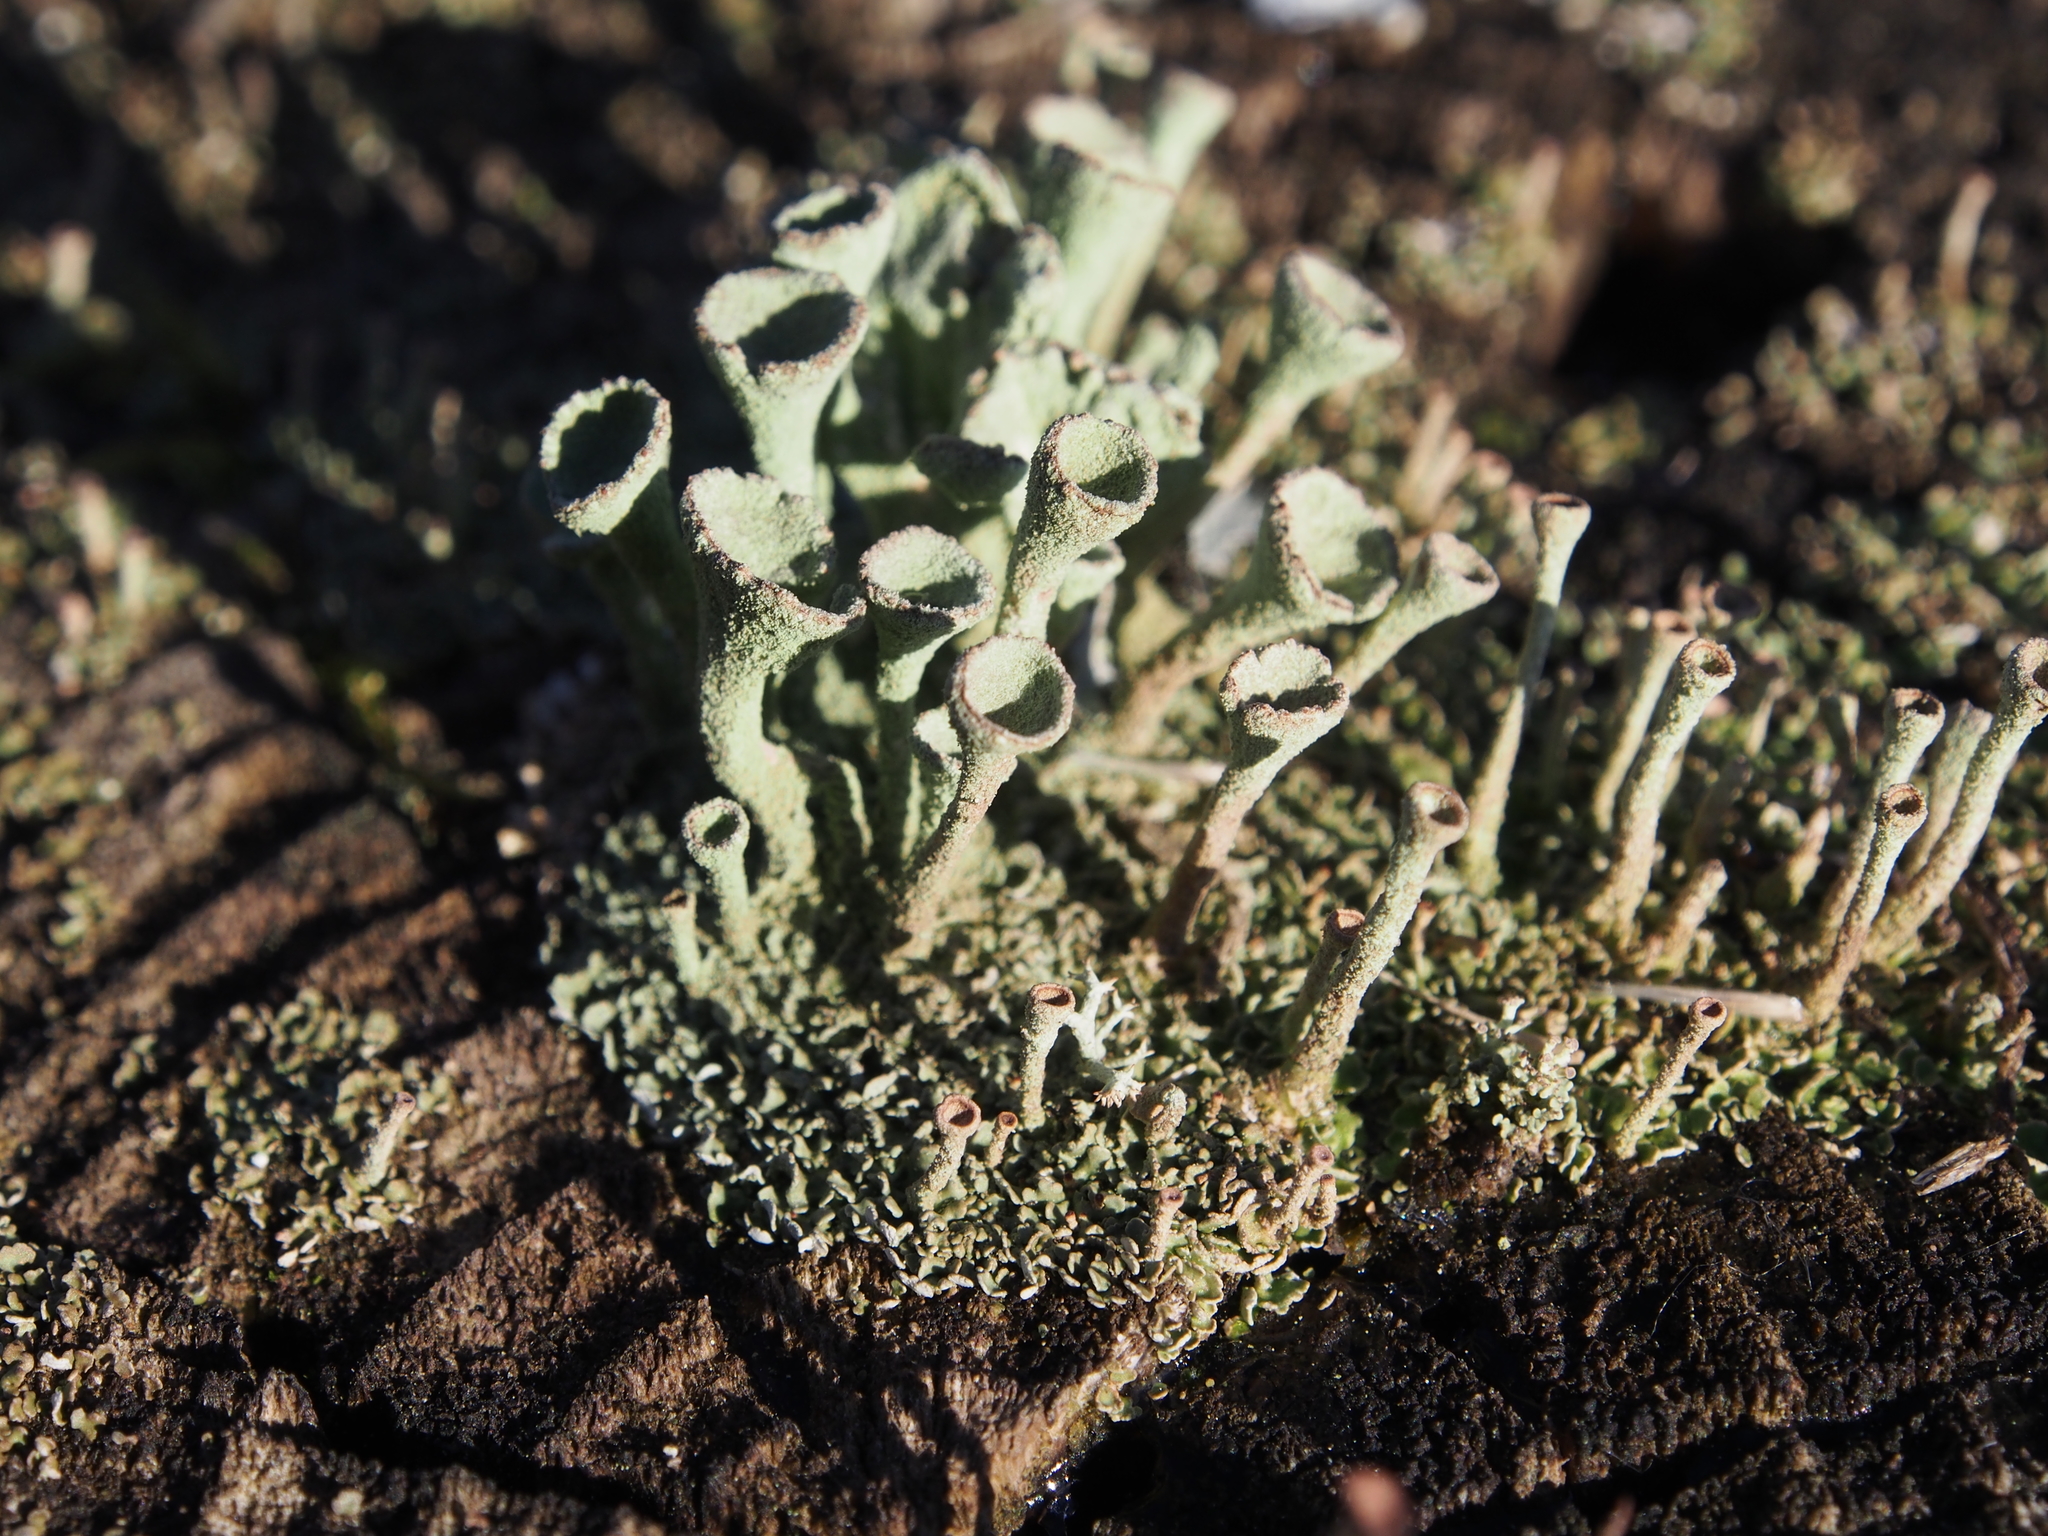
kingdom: Fungi
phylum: Ascomycota
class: Lecanoromycetes
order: Lecanorales
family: Cladoniaceae
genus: Cladonia
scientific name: Cladonia fimbriata
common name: Powdered trumpet lichen
